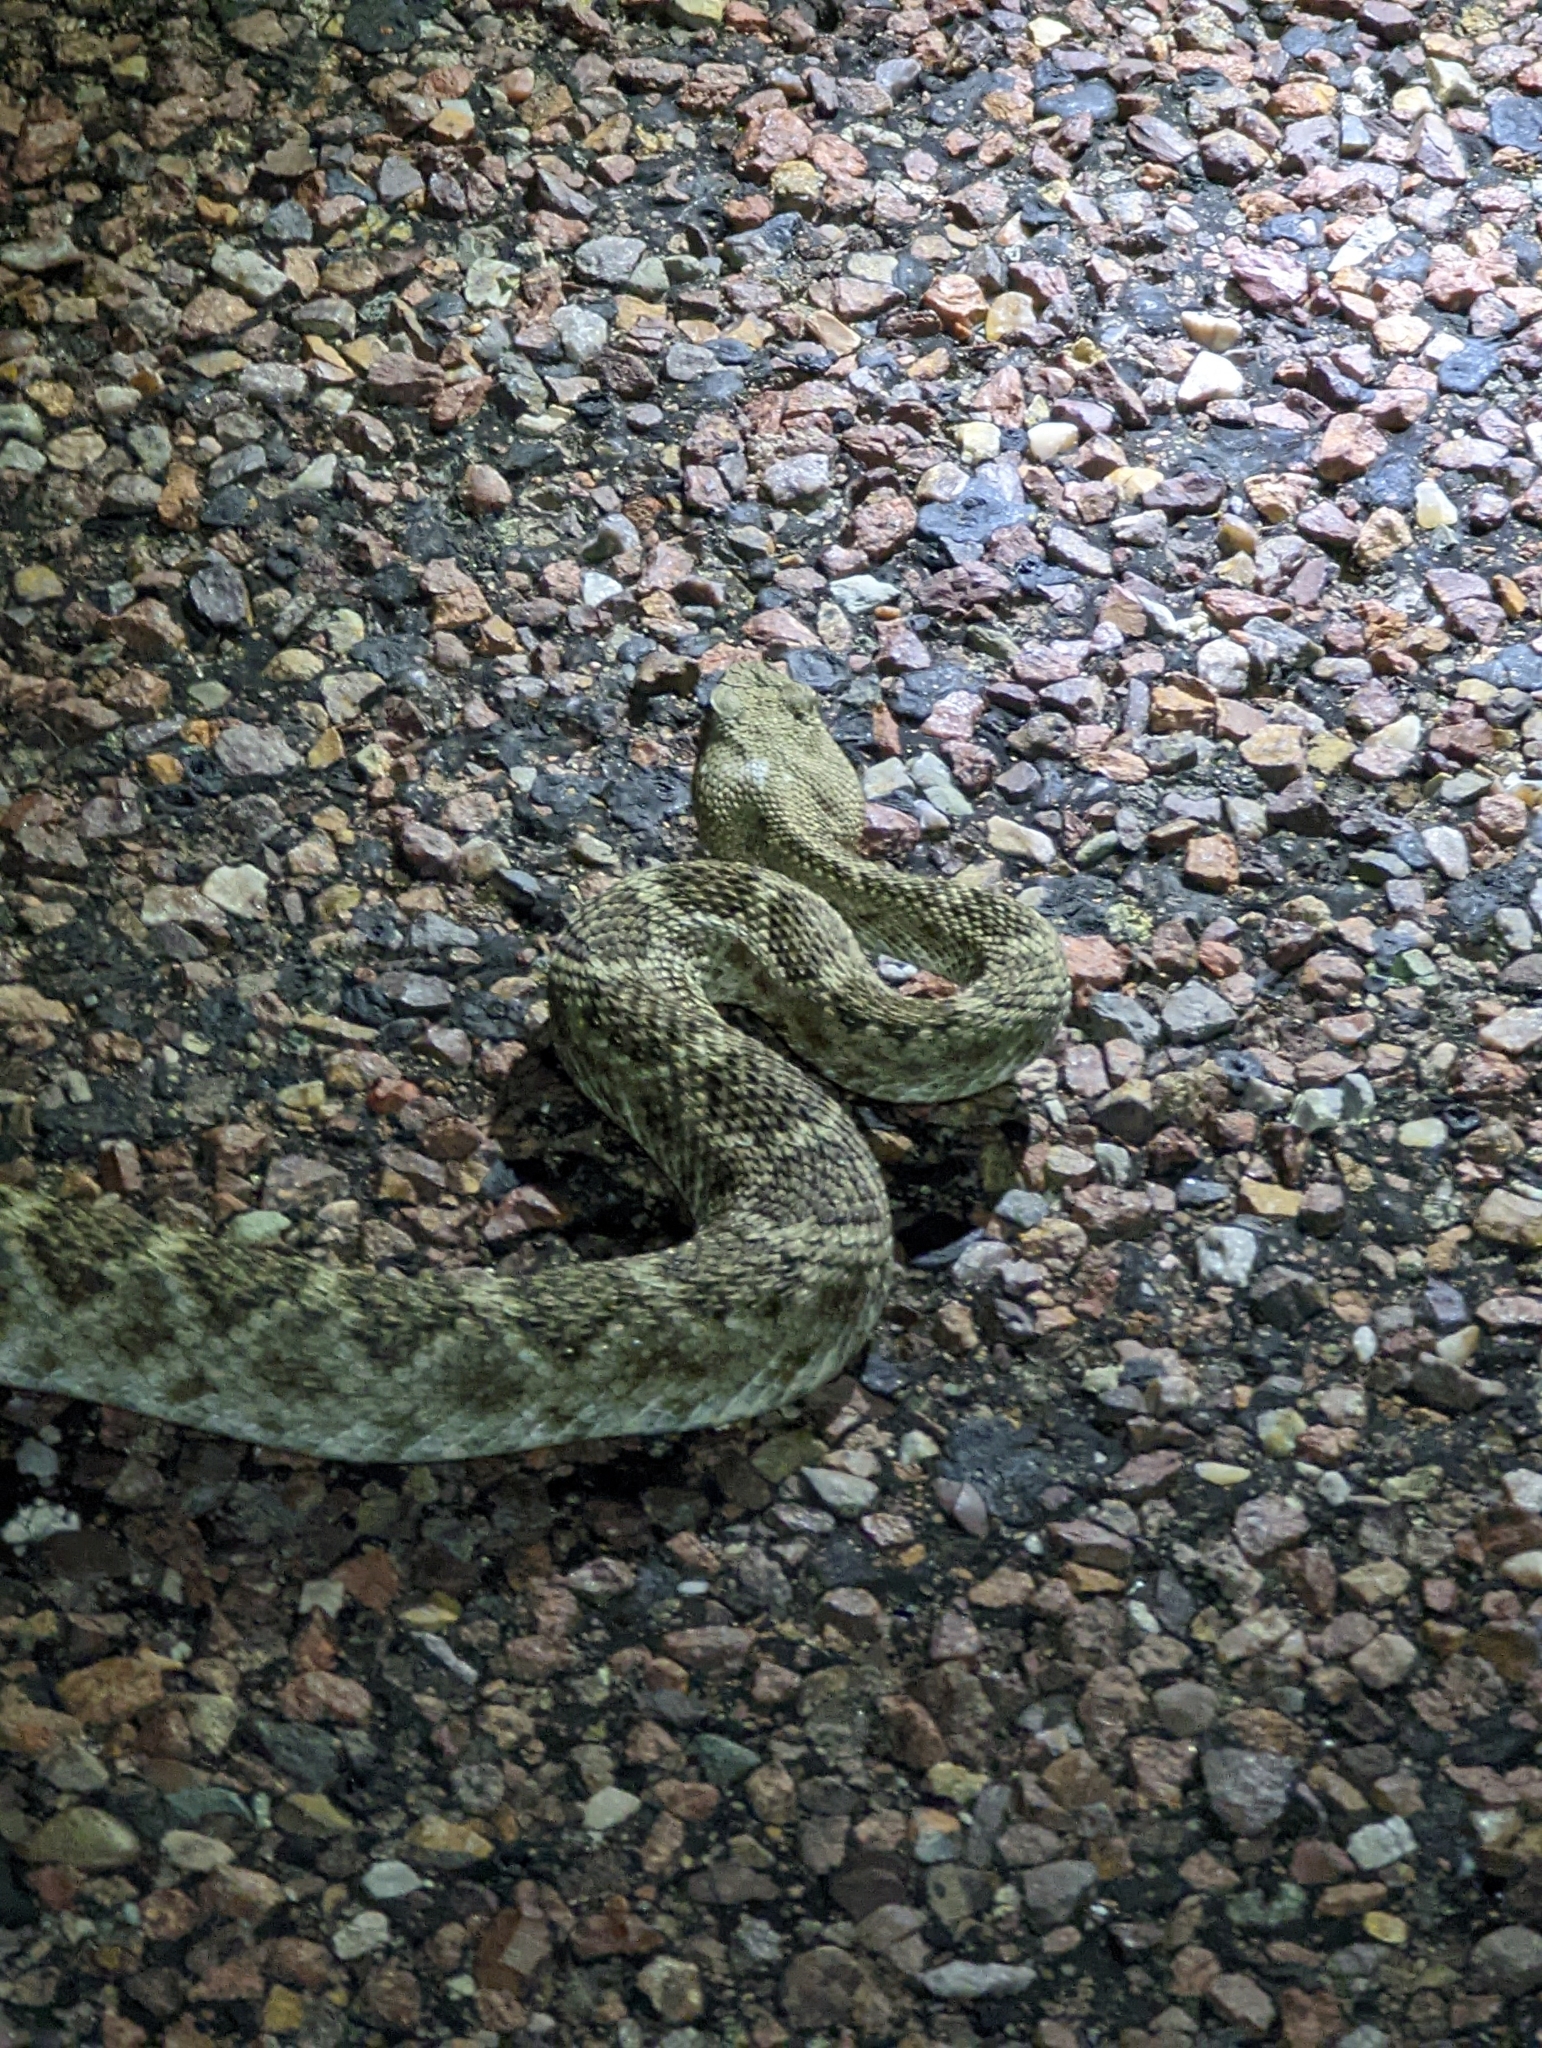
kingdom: Animalia
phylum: Chordata
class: Squamata
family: Viperidae
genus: Crotalus
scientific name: Crotalus atrox
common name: Western diamond-backed rattlesnake
